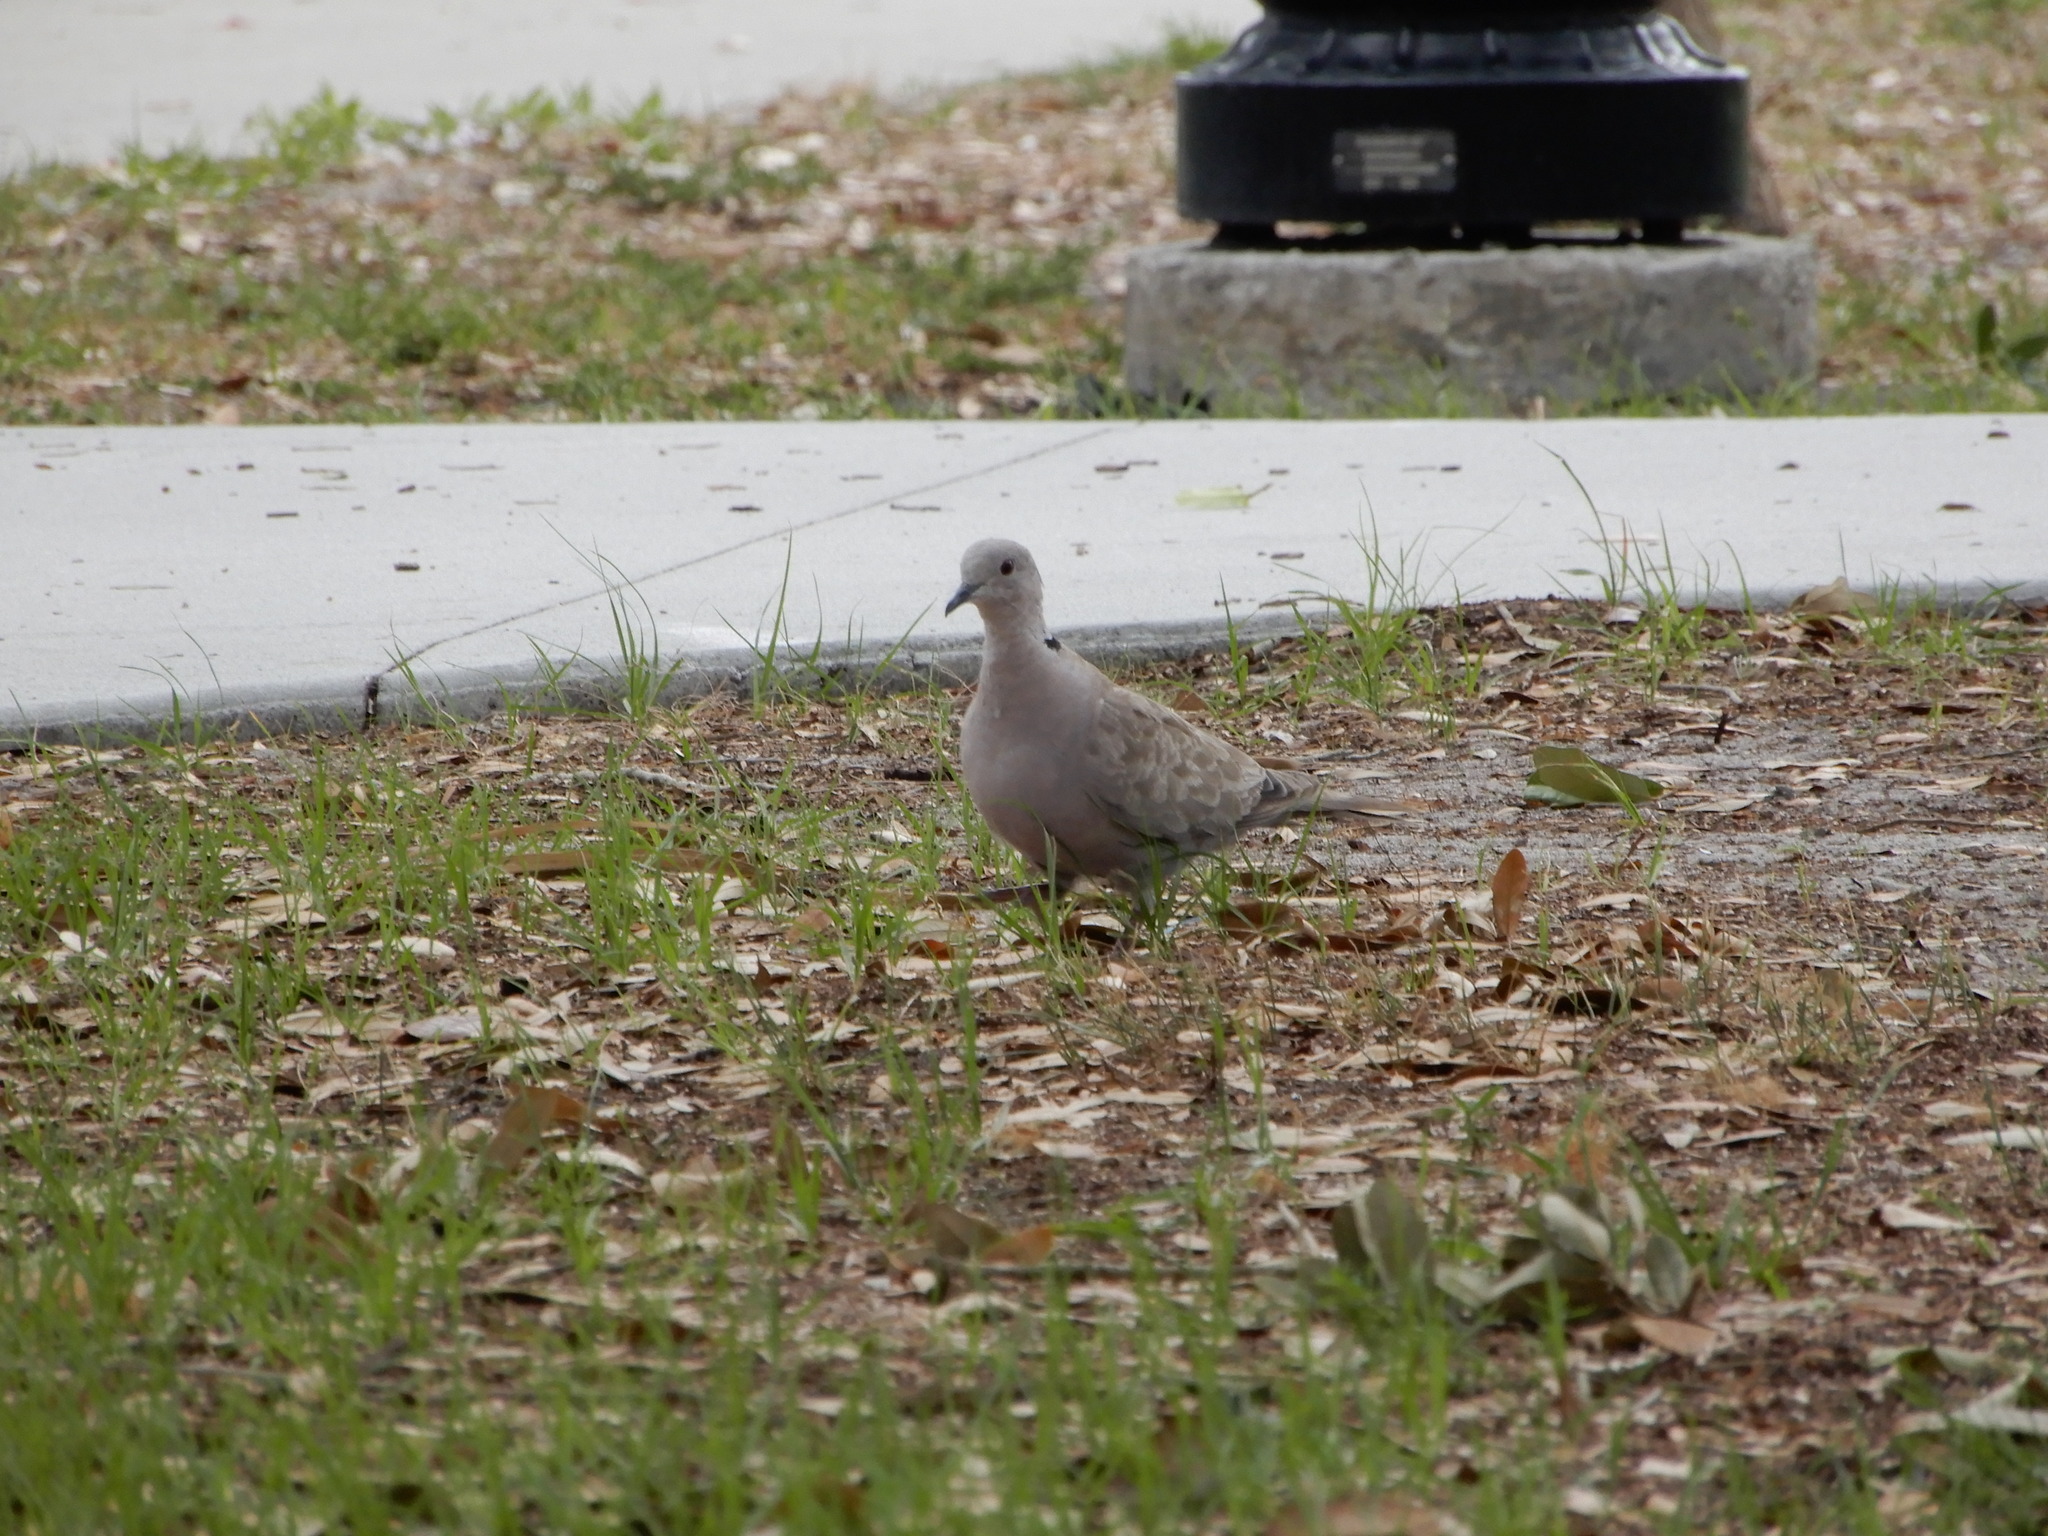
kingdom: Animalia
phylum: Chordata
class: Aves
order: Columbiformes
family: Columbidae
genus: Streptopelia
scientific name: Streptopelia decaocto
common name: Eurasian collared dove
